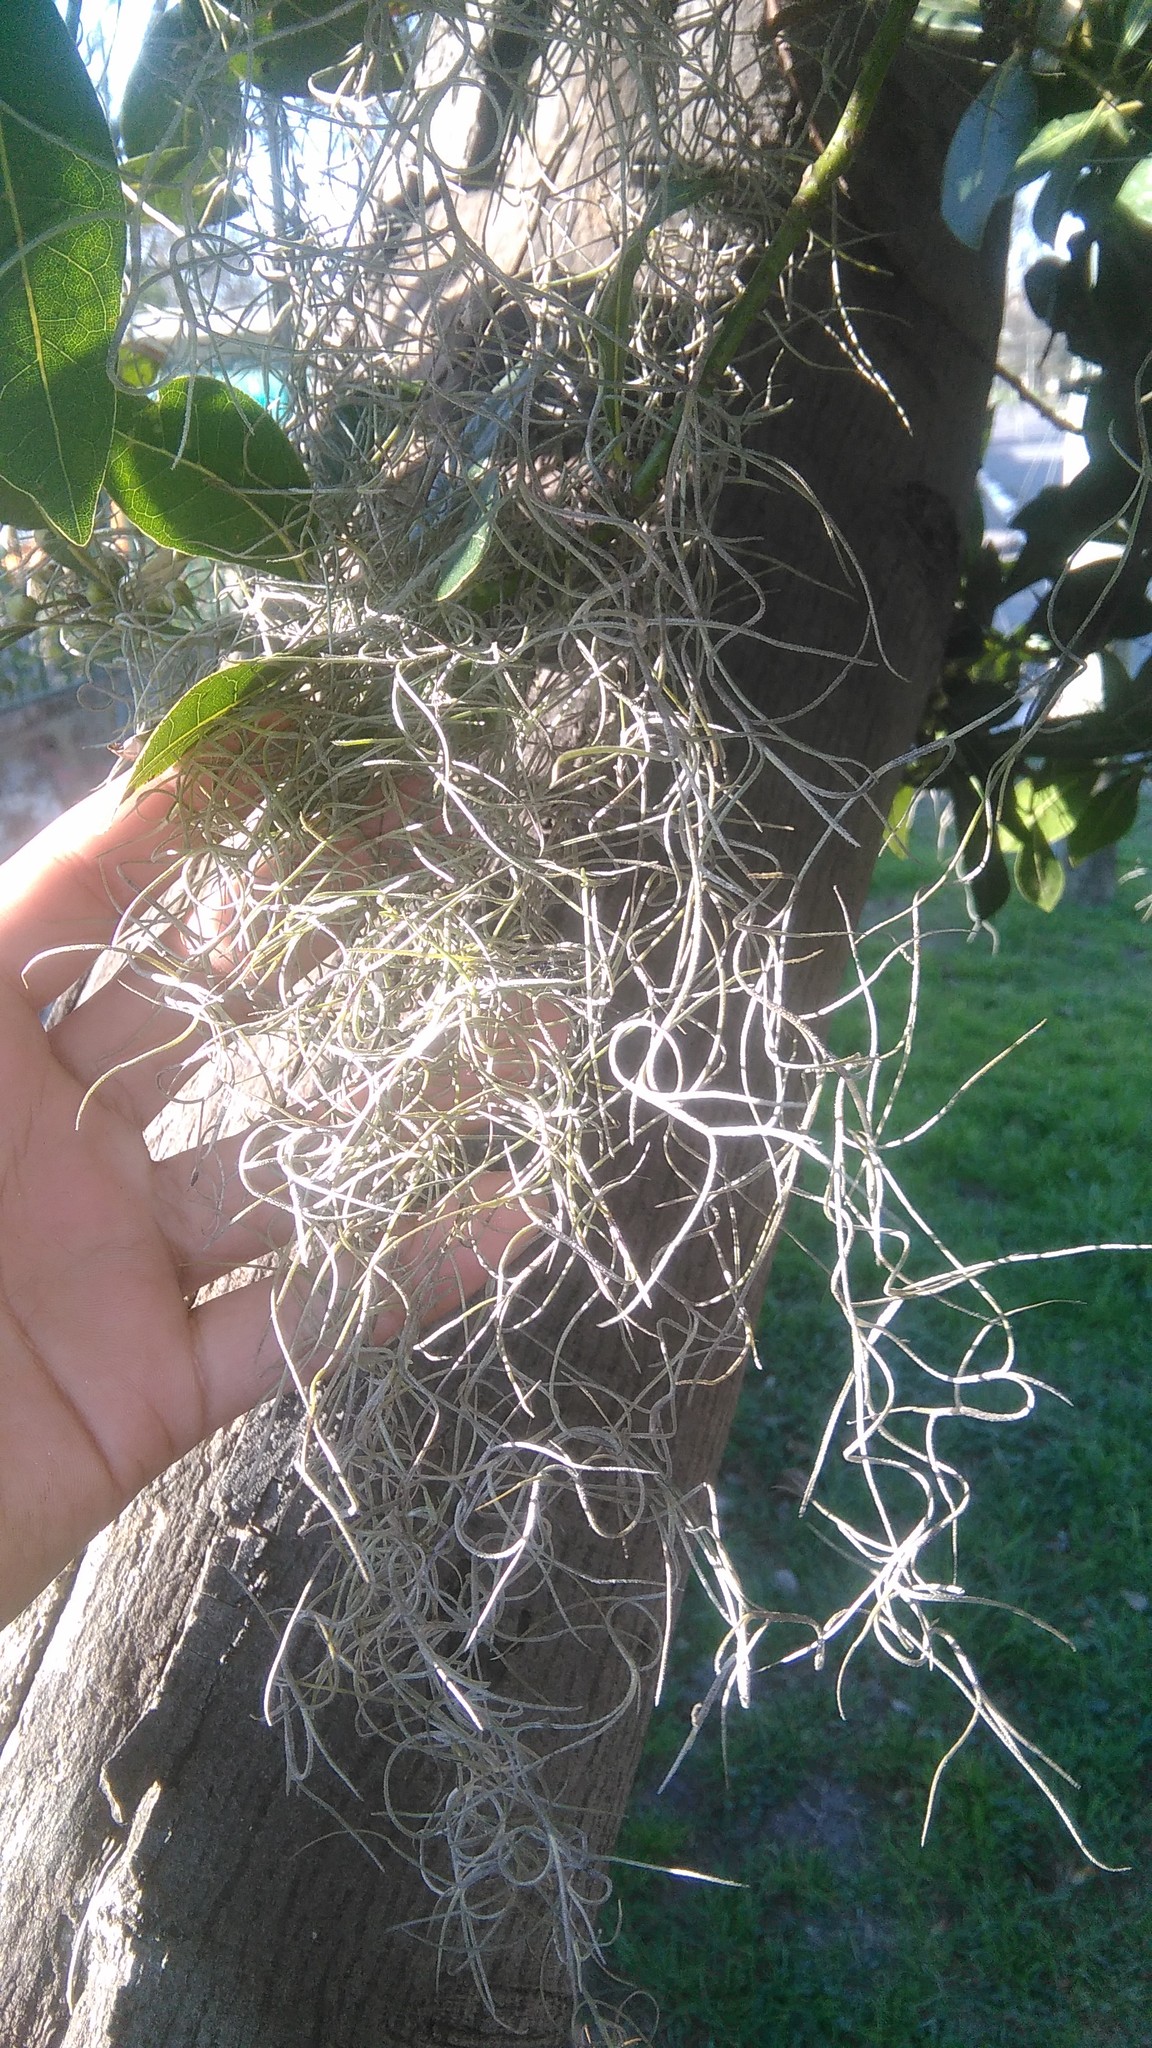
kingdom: Plantae
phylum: Tracheophyta
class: Liliopsida
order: Poales
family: Bromeliaceae
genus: Tillandsia
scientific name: Tillandsia usneoides
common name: Spanish moss
